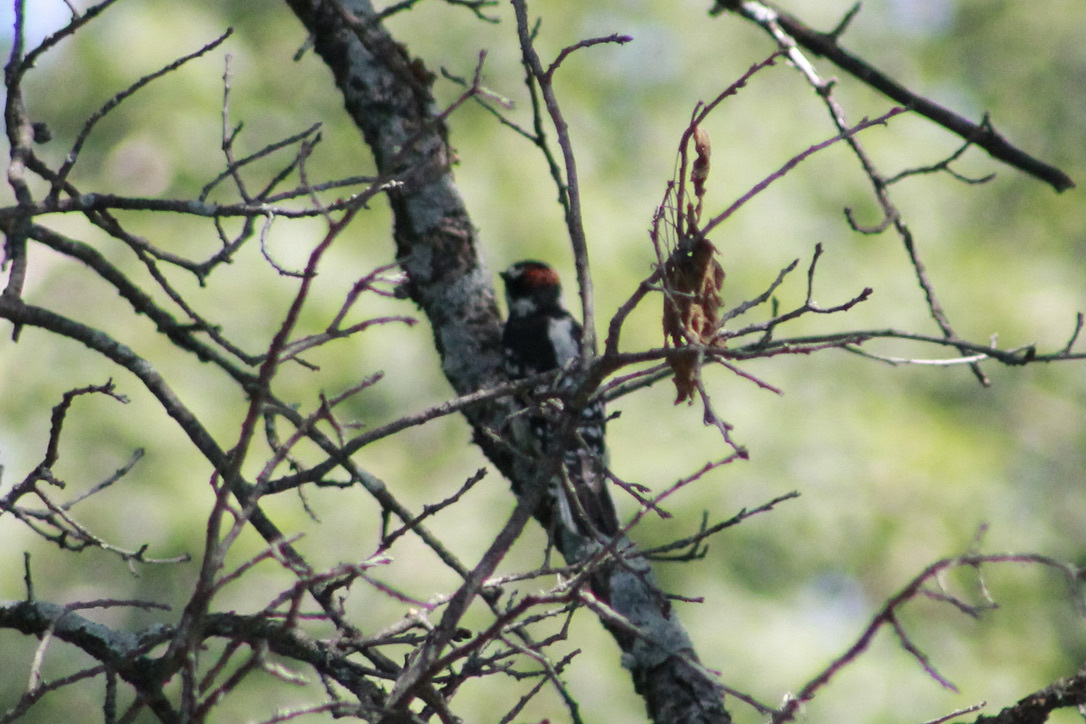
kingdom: Animalia
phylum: Chordata
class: Aves
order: Piciformes
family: Picidae
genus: Dryobates
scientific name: Dryobates pubescens
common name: Downy woodpecker
